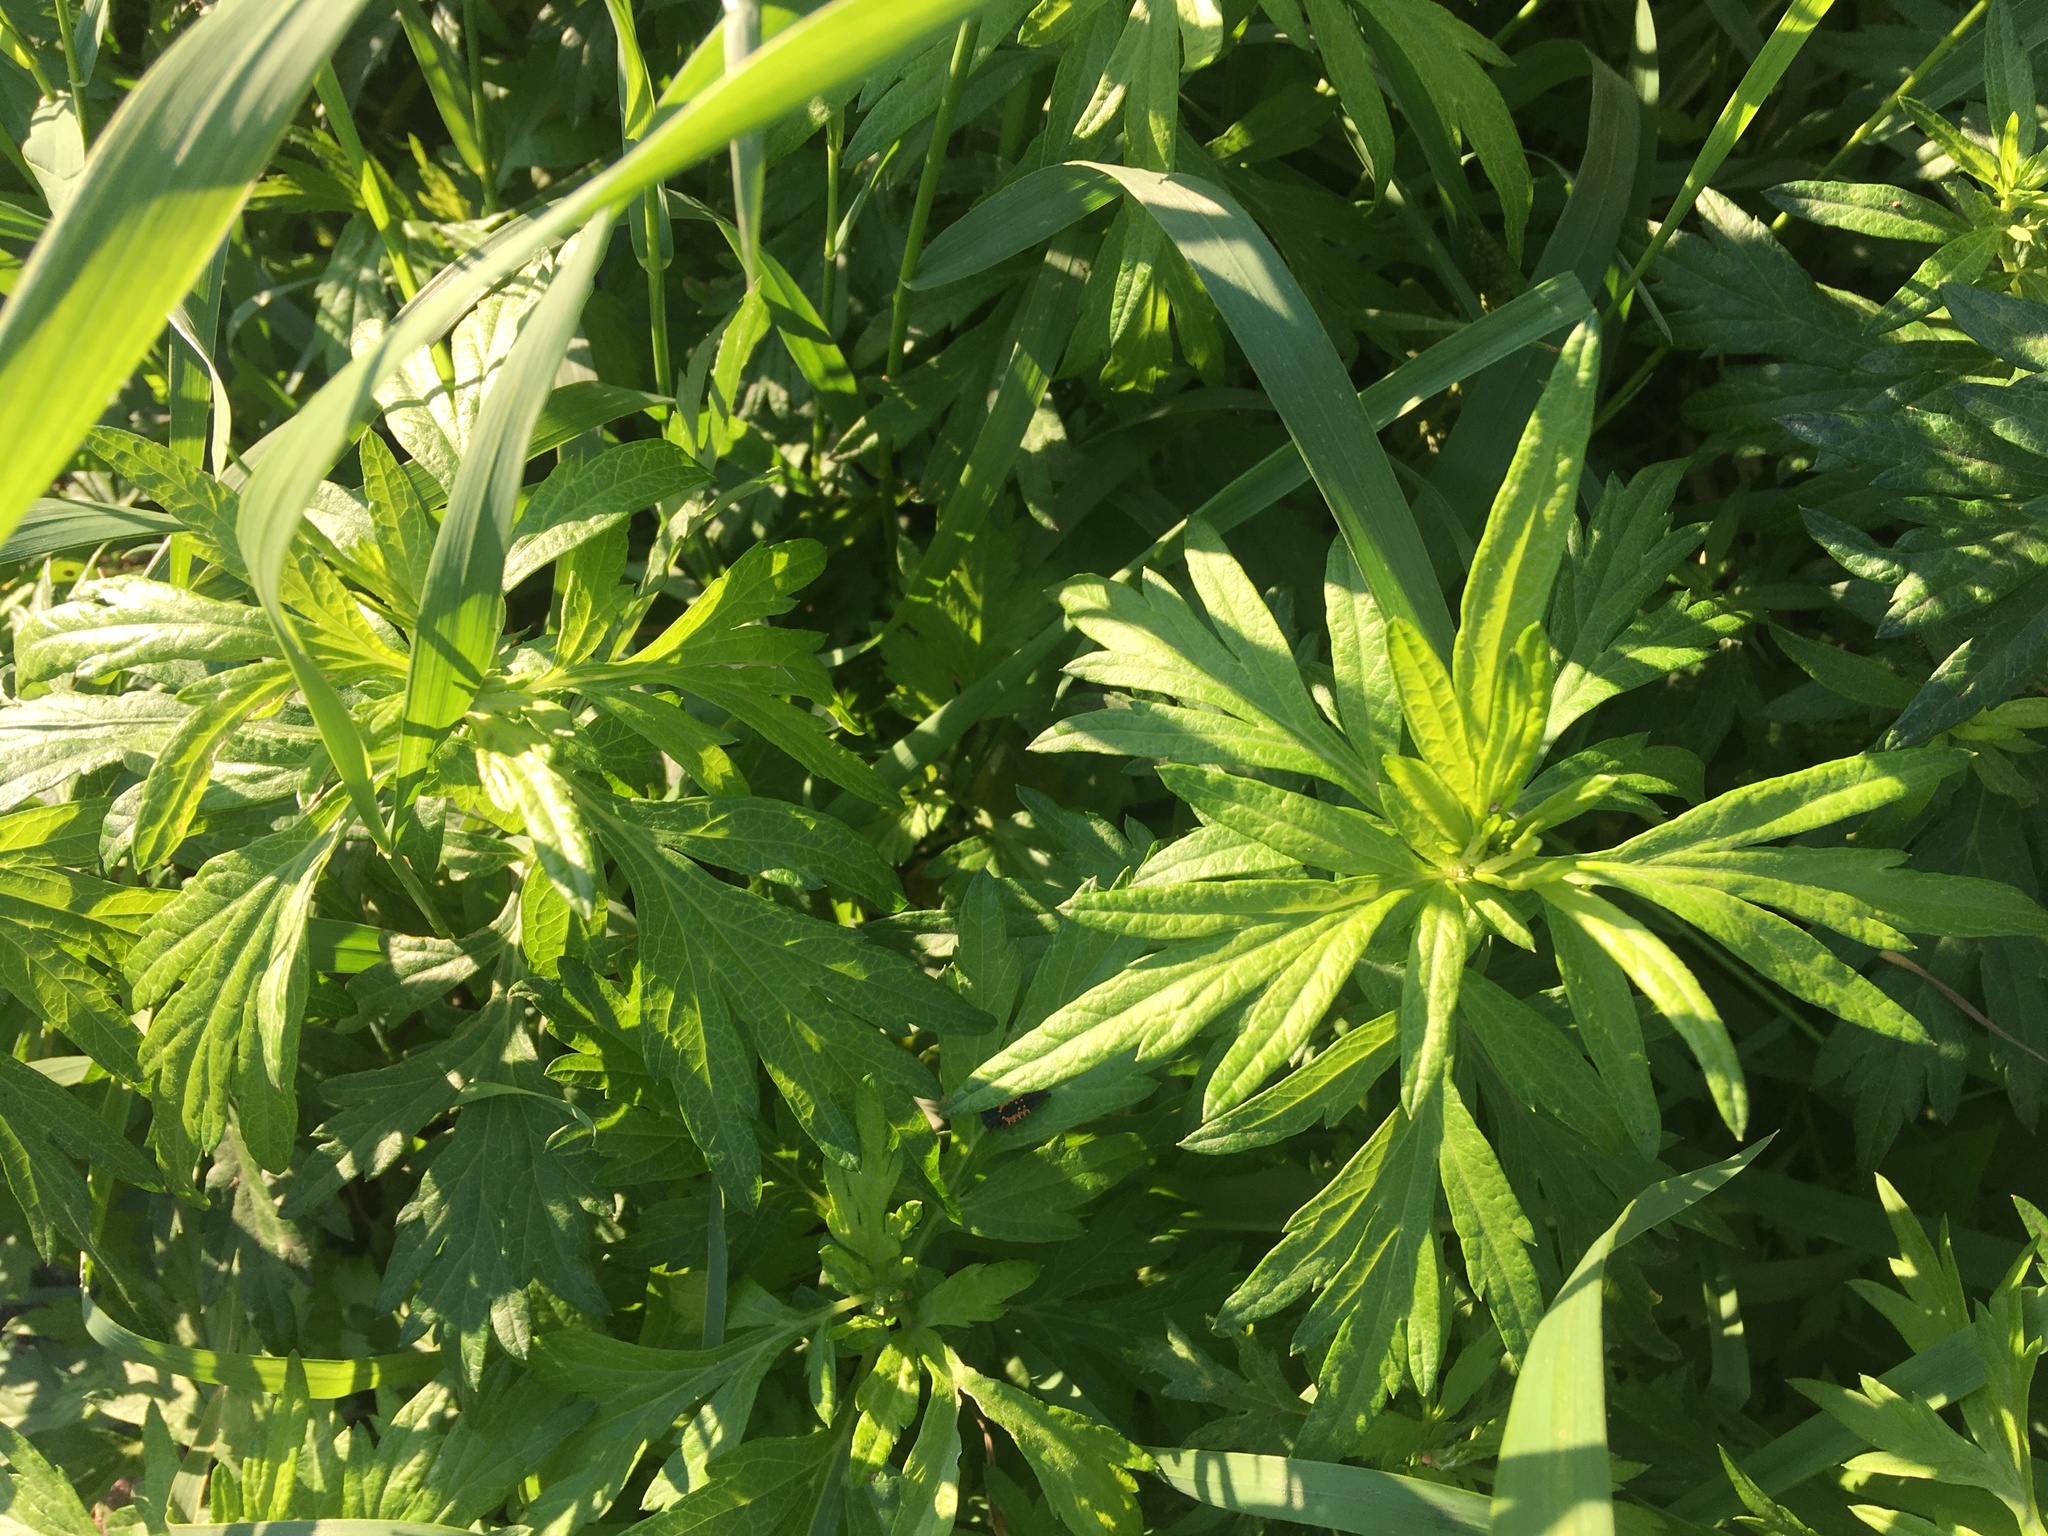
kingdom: Plantae
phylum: Tracheophyta
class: Magnoliopsida
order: Asterales
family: Asteraceae
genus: Artemisia
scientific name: Artemisia vulgaris
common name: Mugwort
